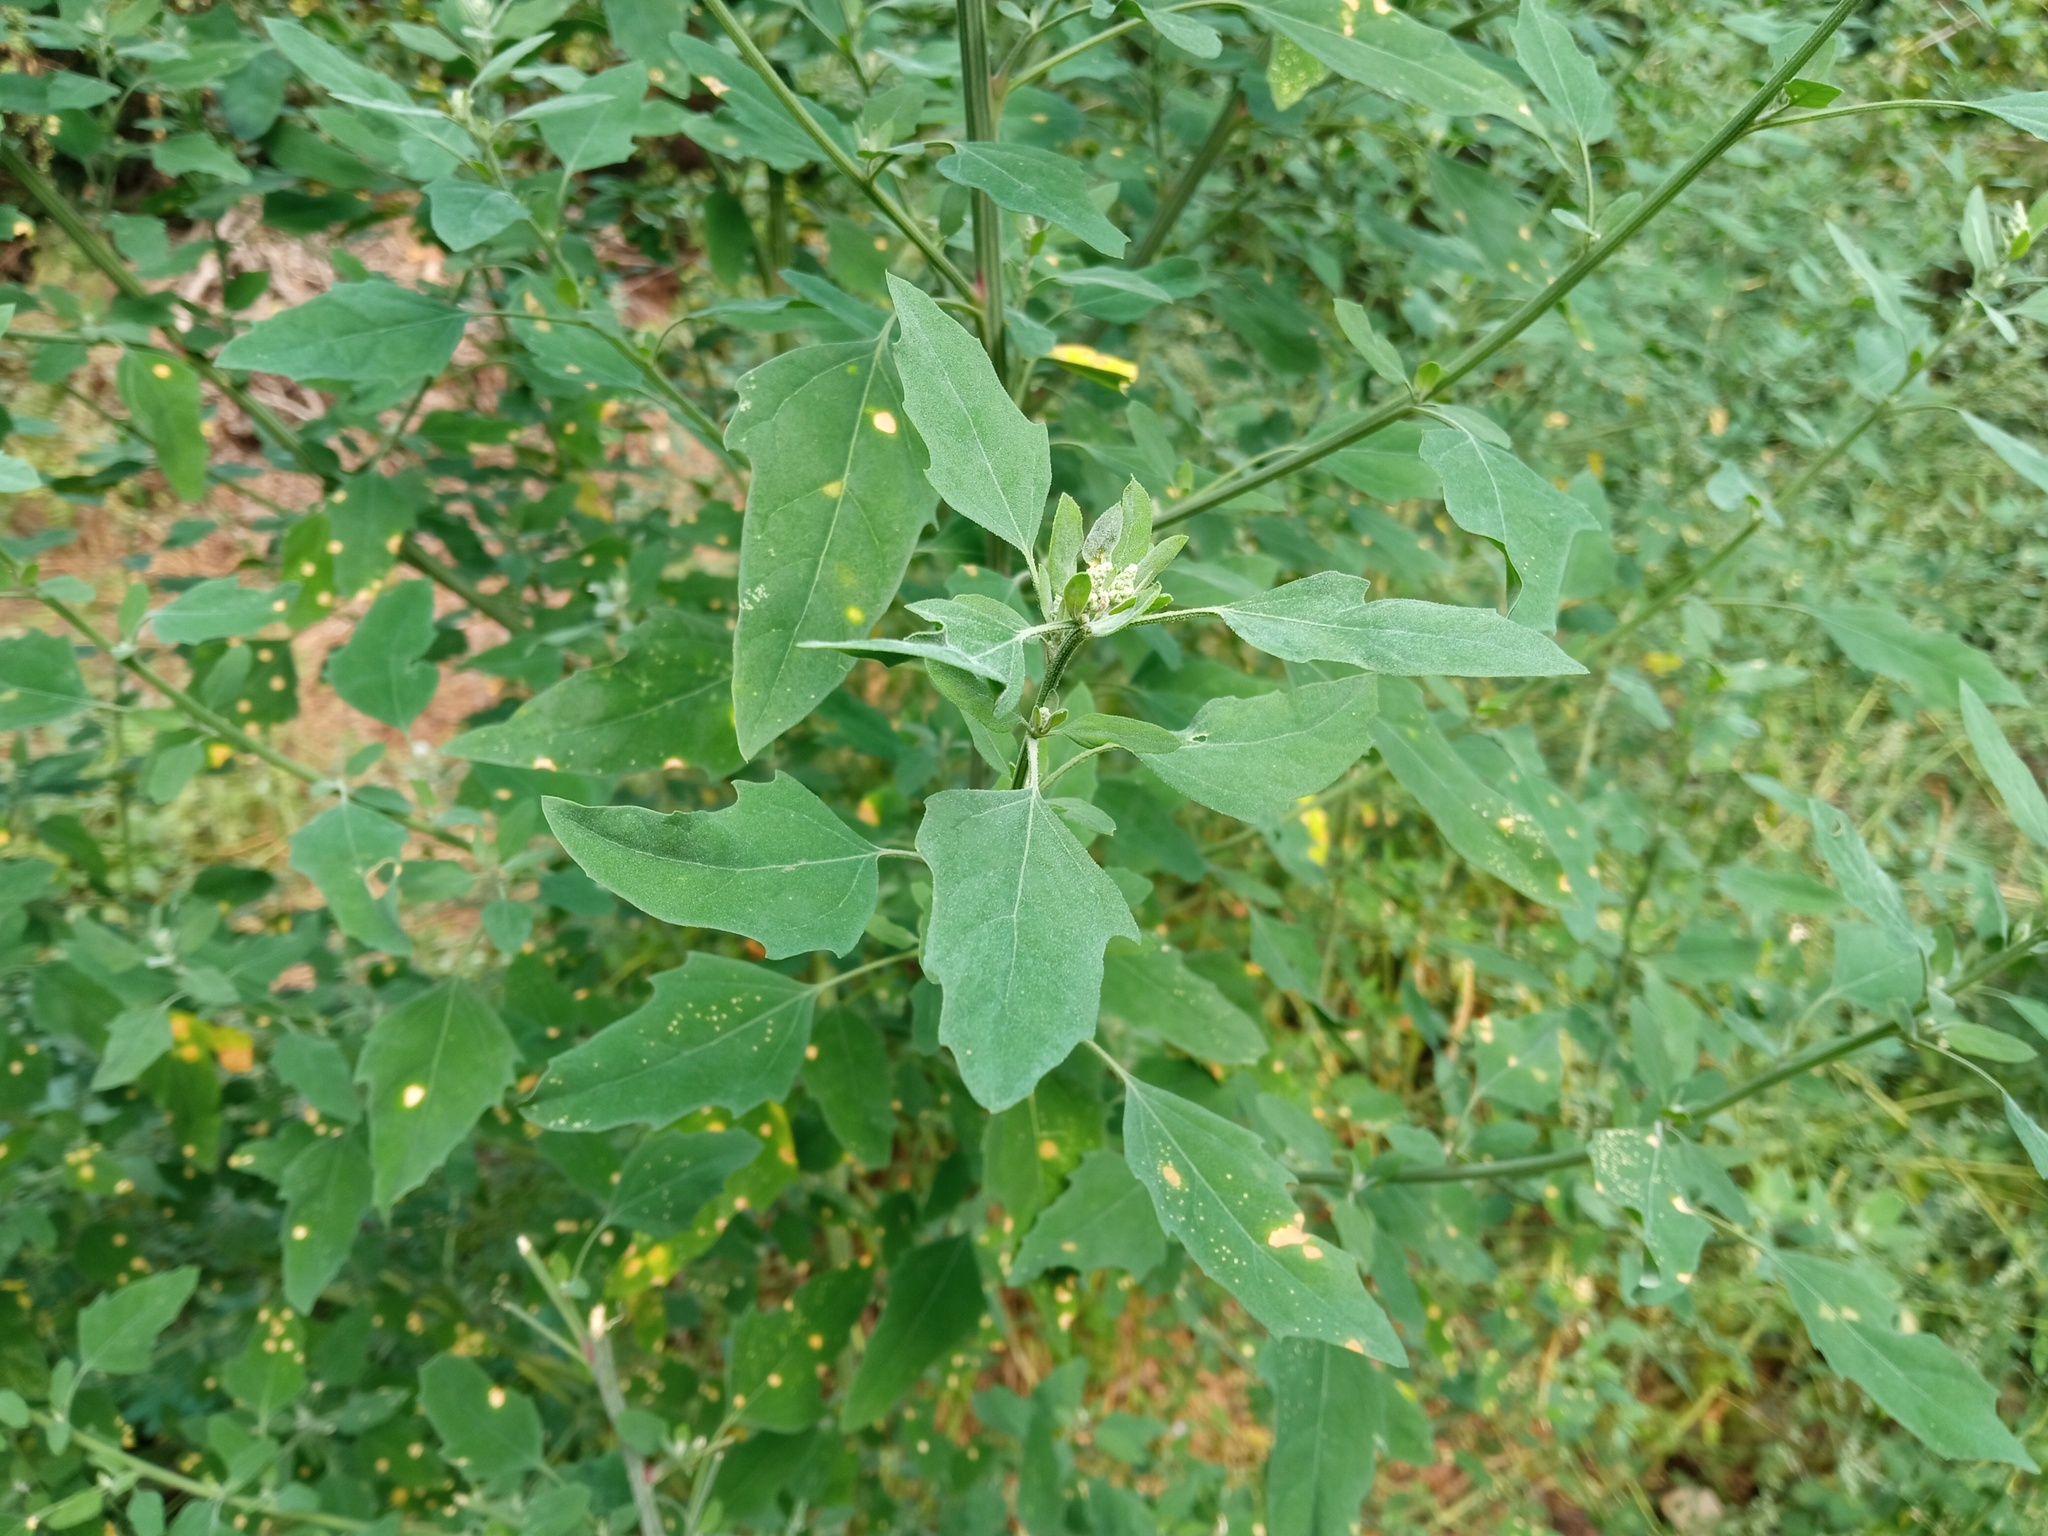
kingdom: Plantae
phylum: Tracheophyta
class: Magnoliopsida
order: Caryophyllales
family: Amaranthaceae
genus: Chenopodium
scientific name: Chenopodium album
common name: Fat-hen
